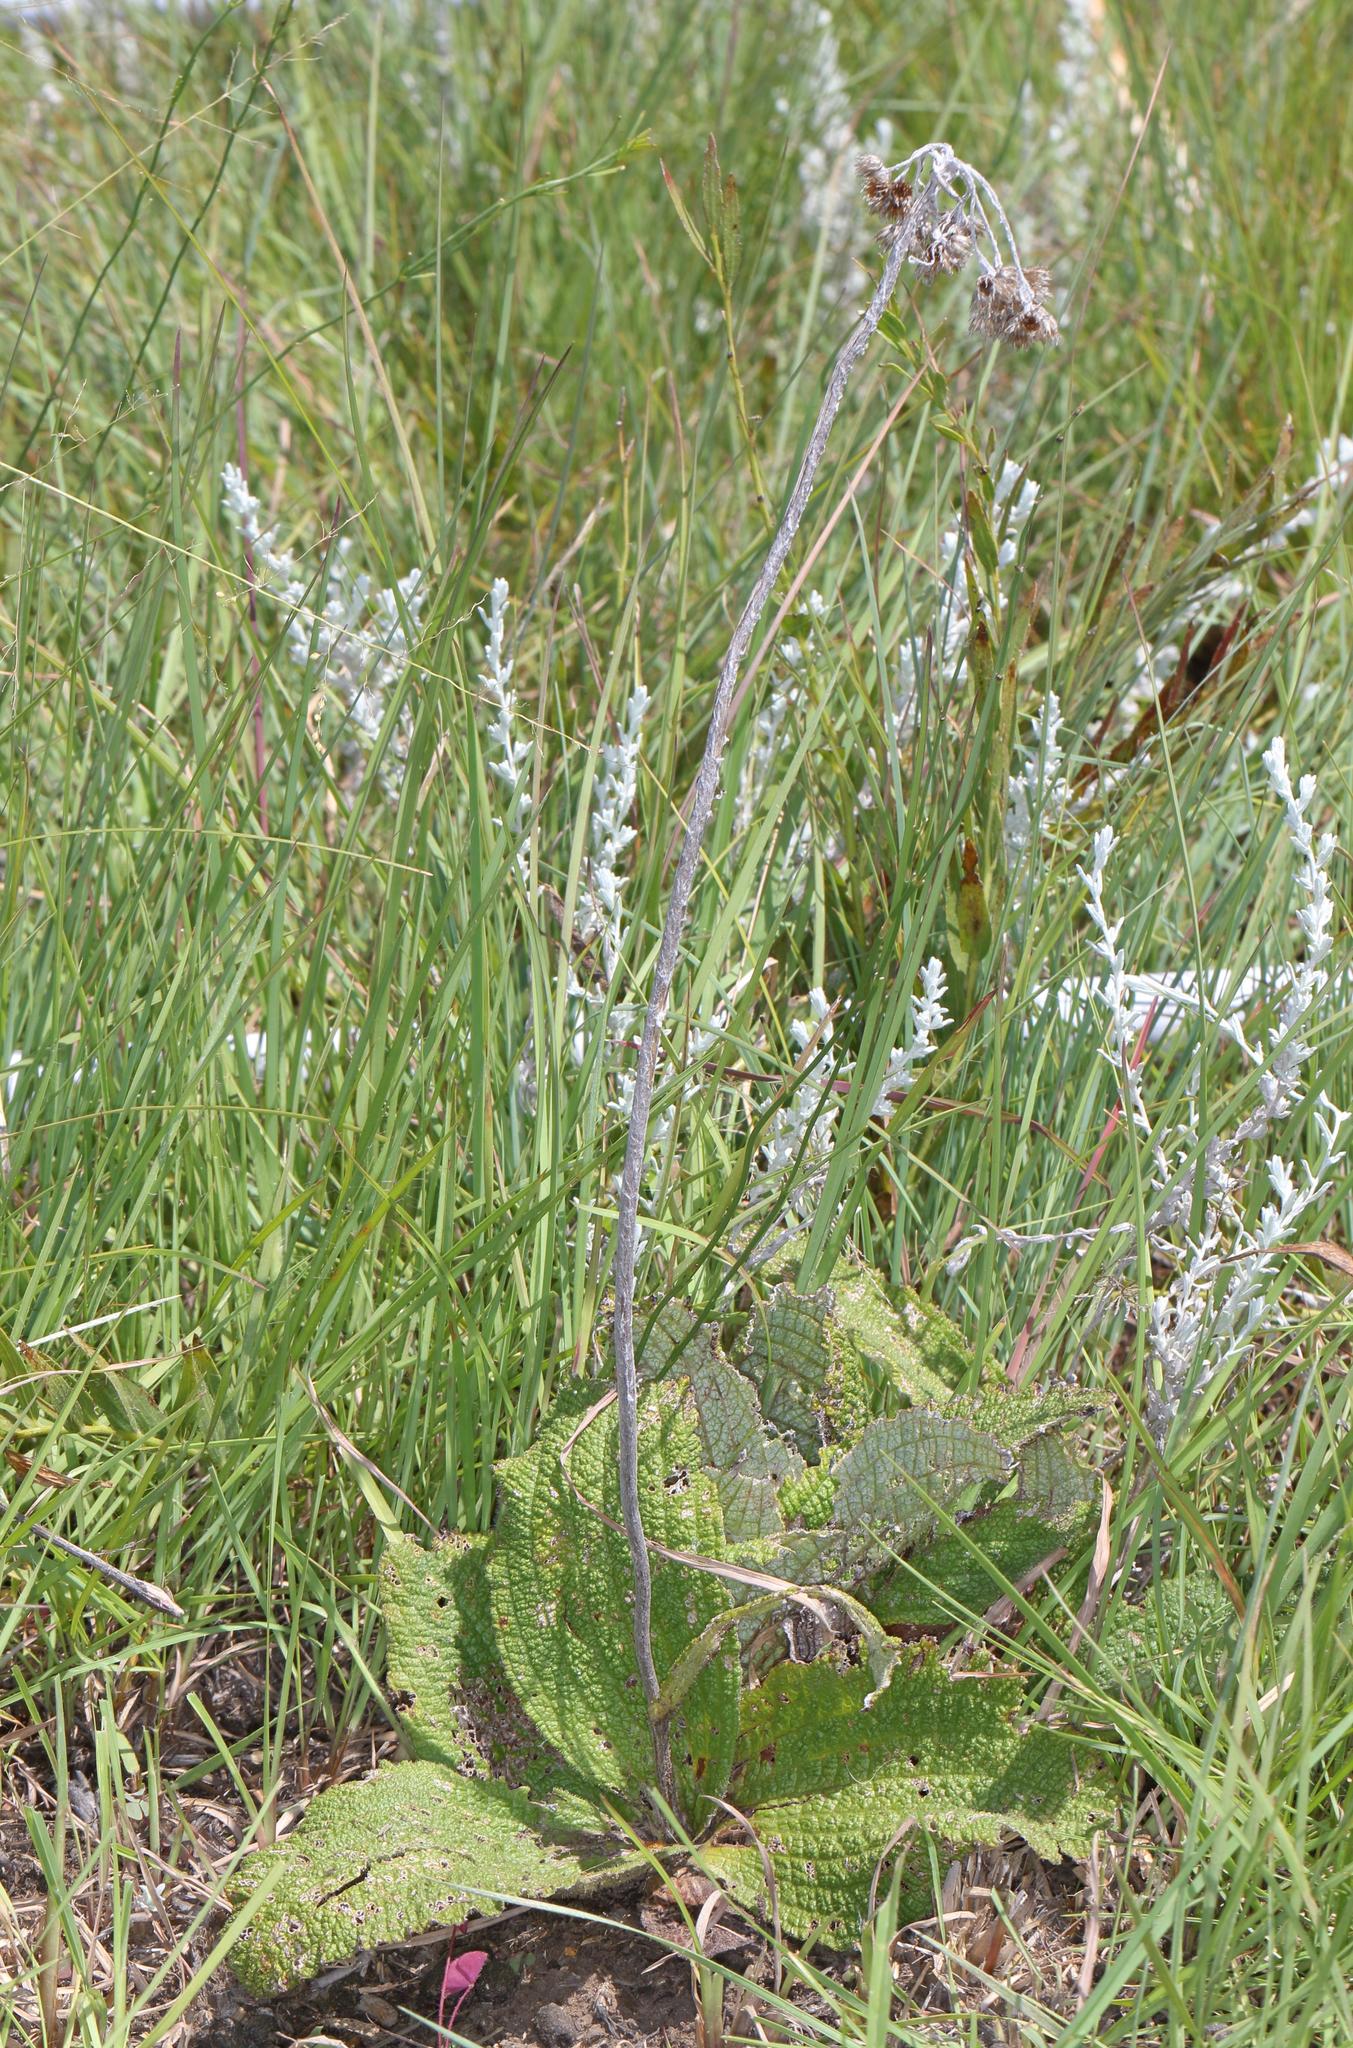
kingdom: Plantae
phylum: Tracheophyta
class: Magnoliopsida
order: Asterales
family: Asteraceae
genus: Helichrysum
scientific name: Helichrysum nudifolium
